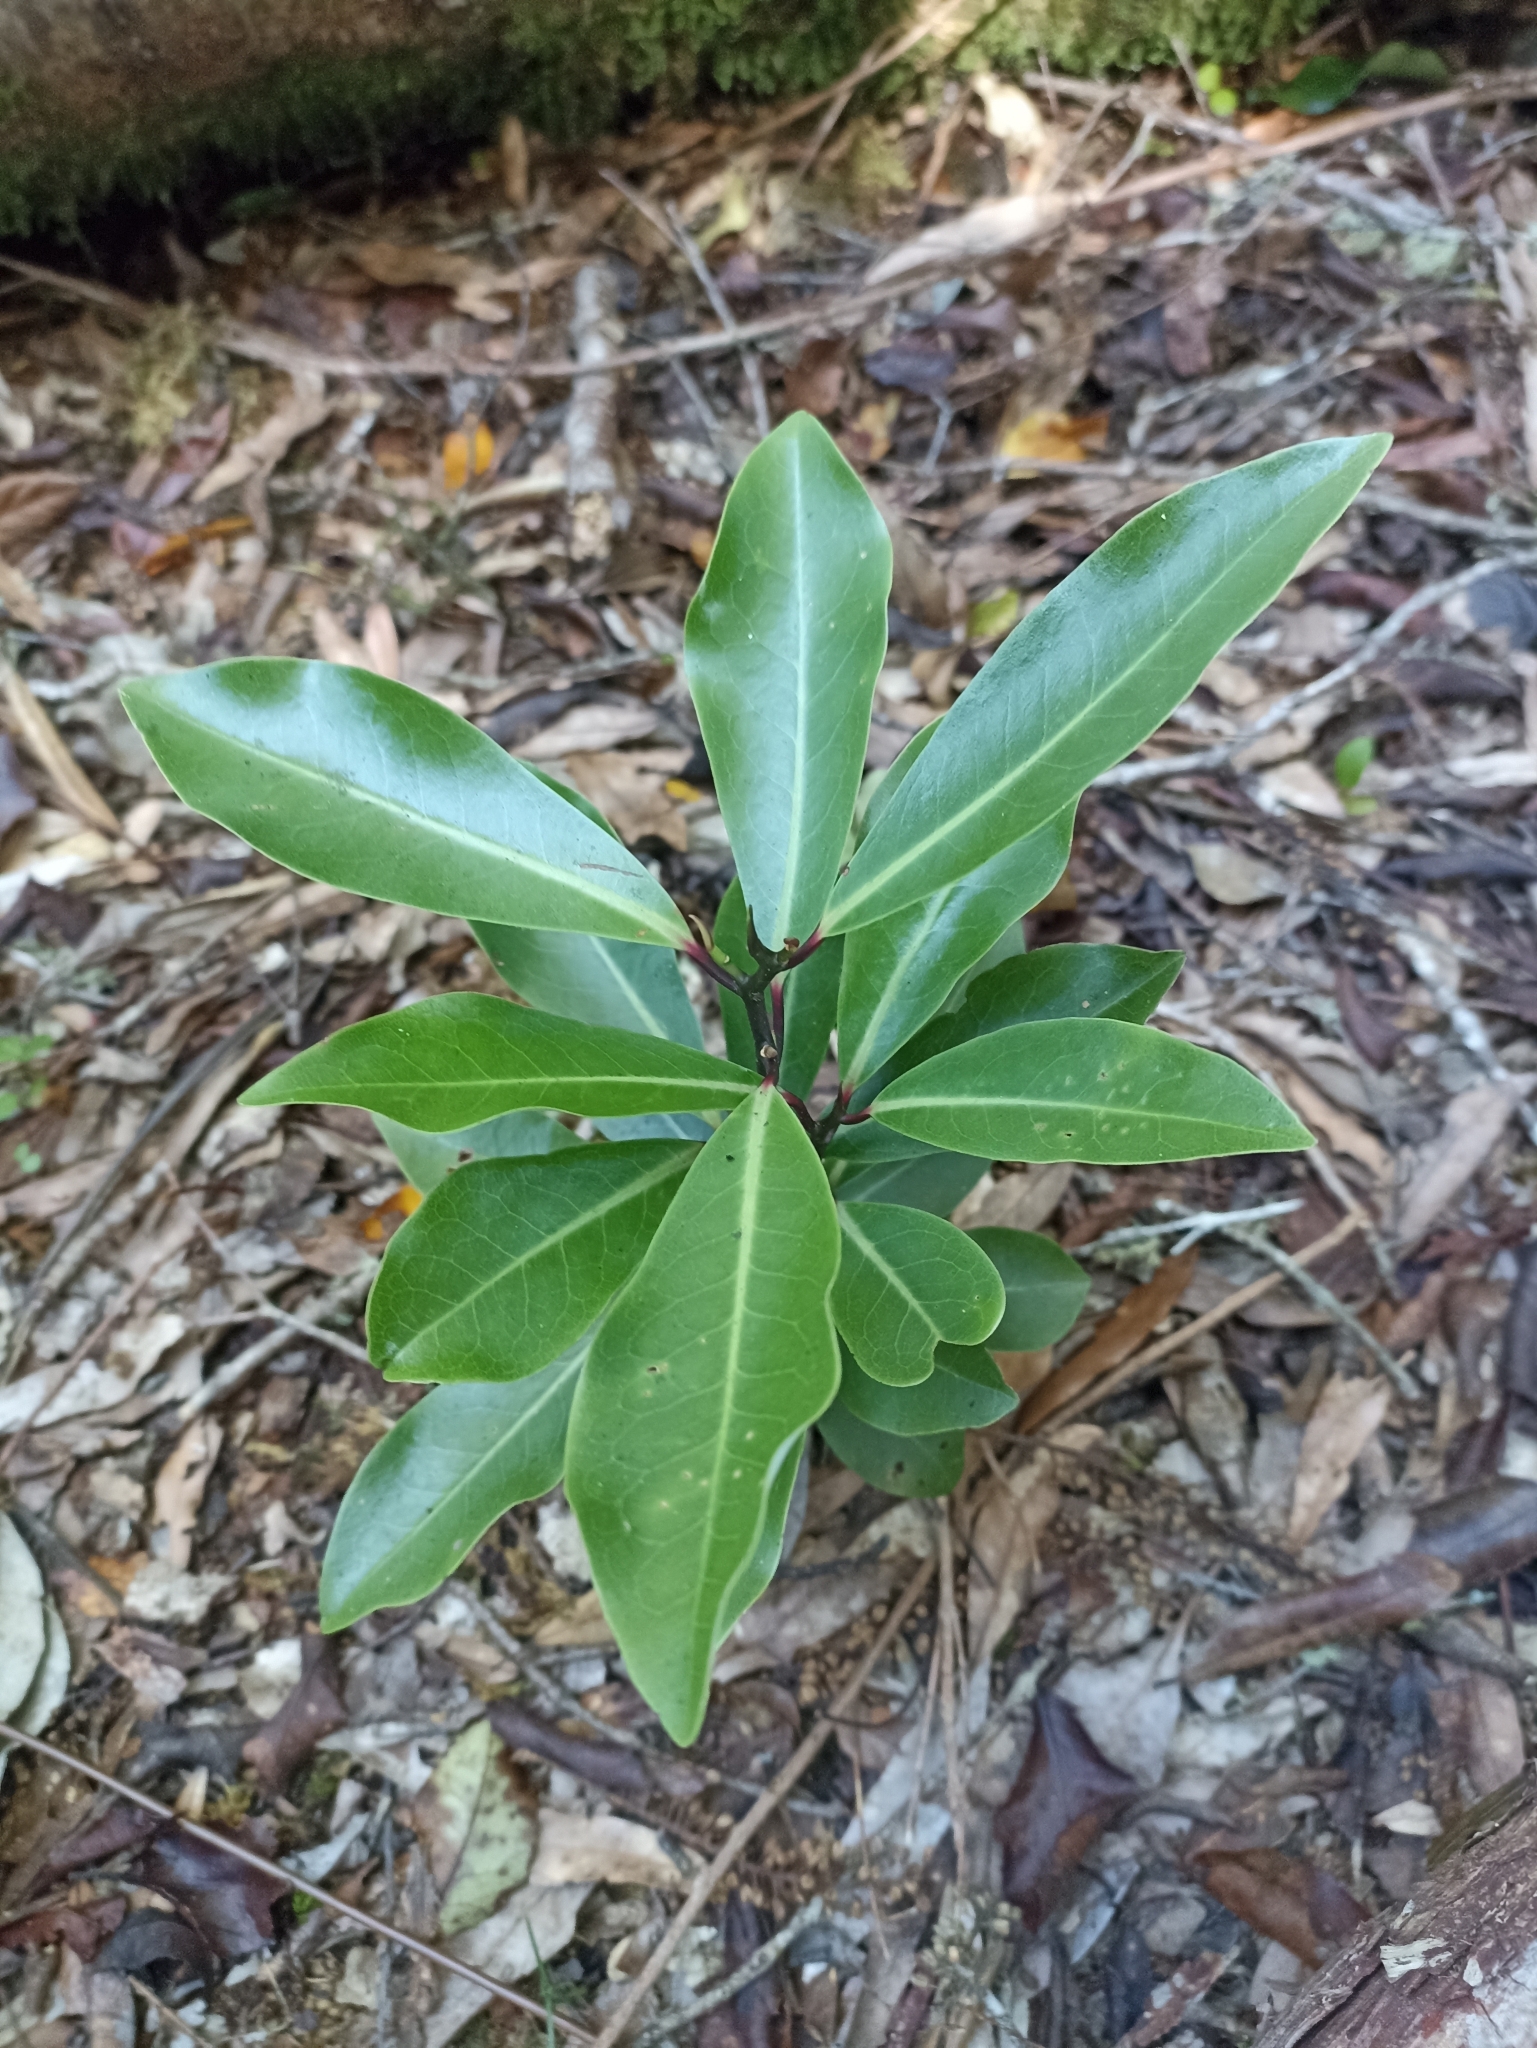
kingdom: Plantae
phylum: Tracheophyta
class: Magnoliopsida
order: Canellales
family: Winteraceae
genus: Pseudowintera
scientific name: Pseudowintera axillaris
